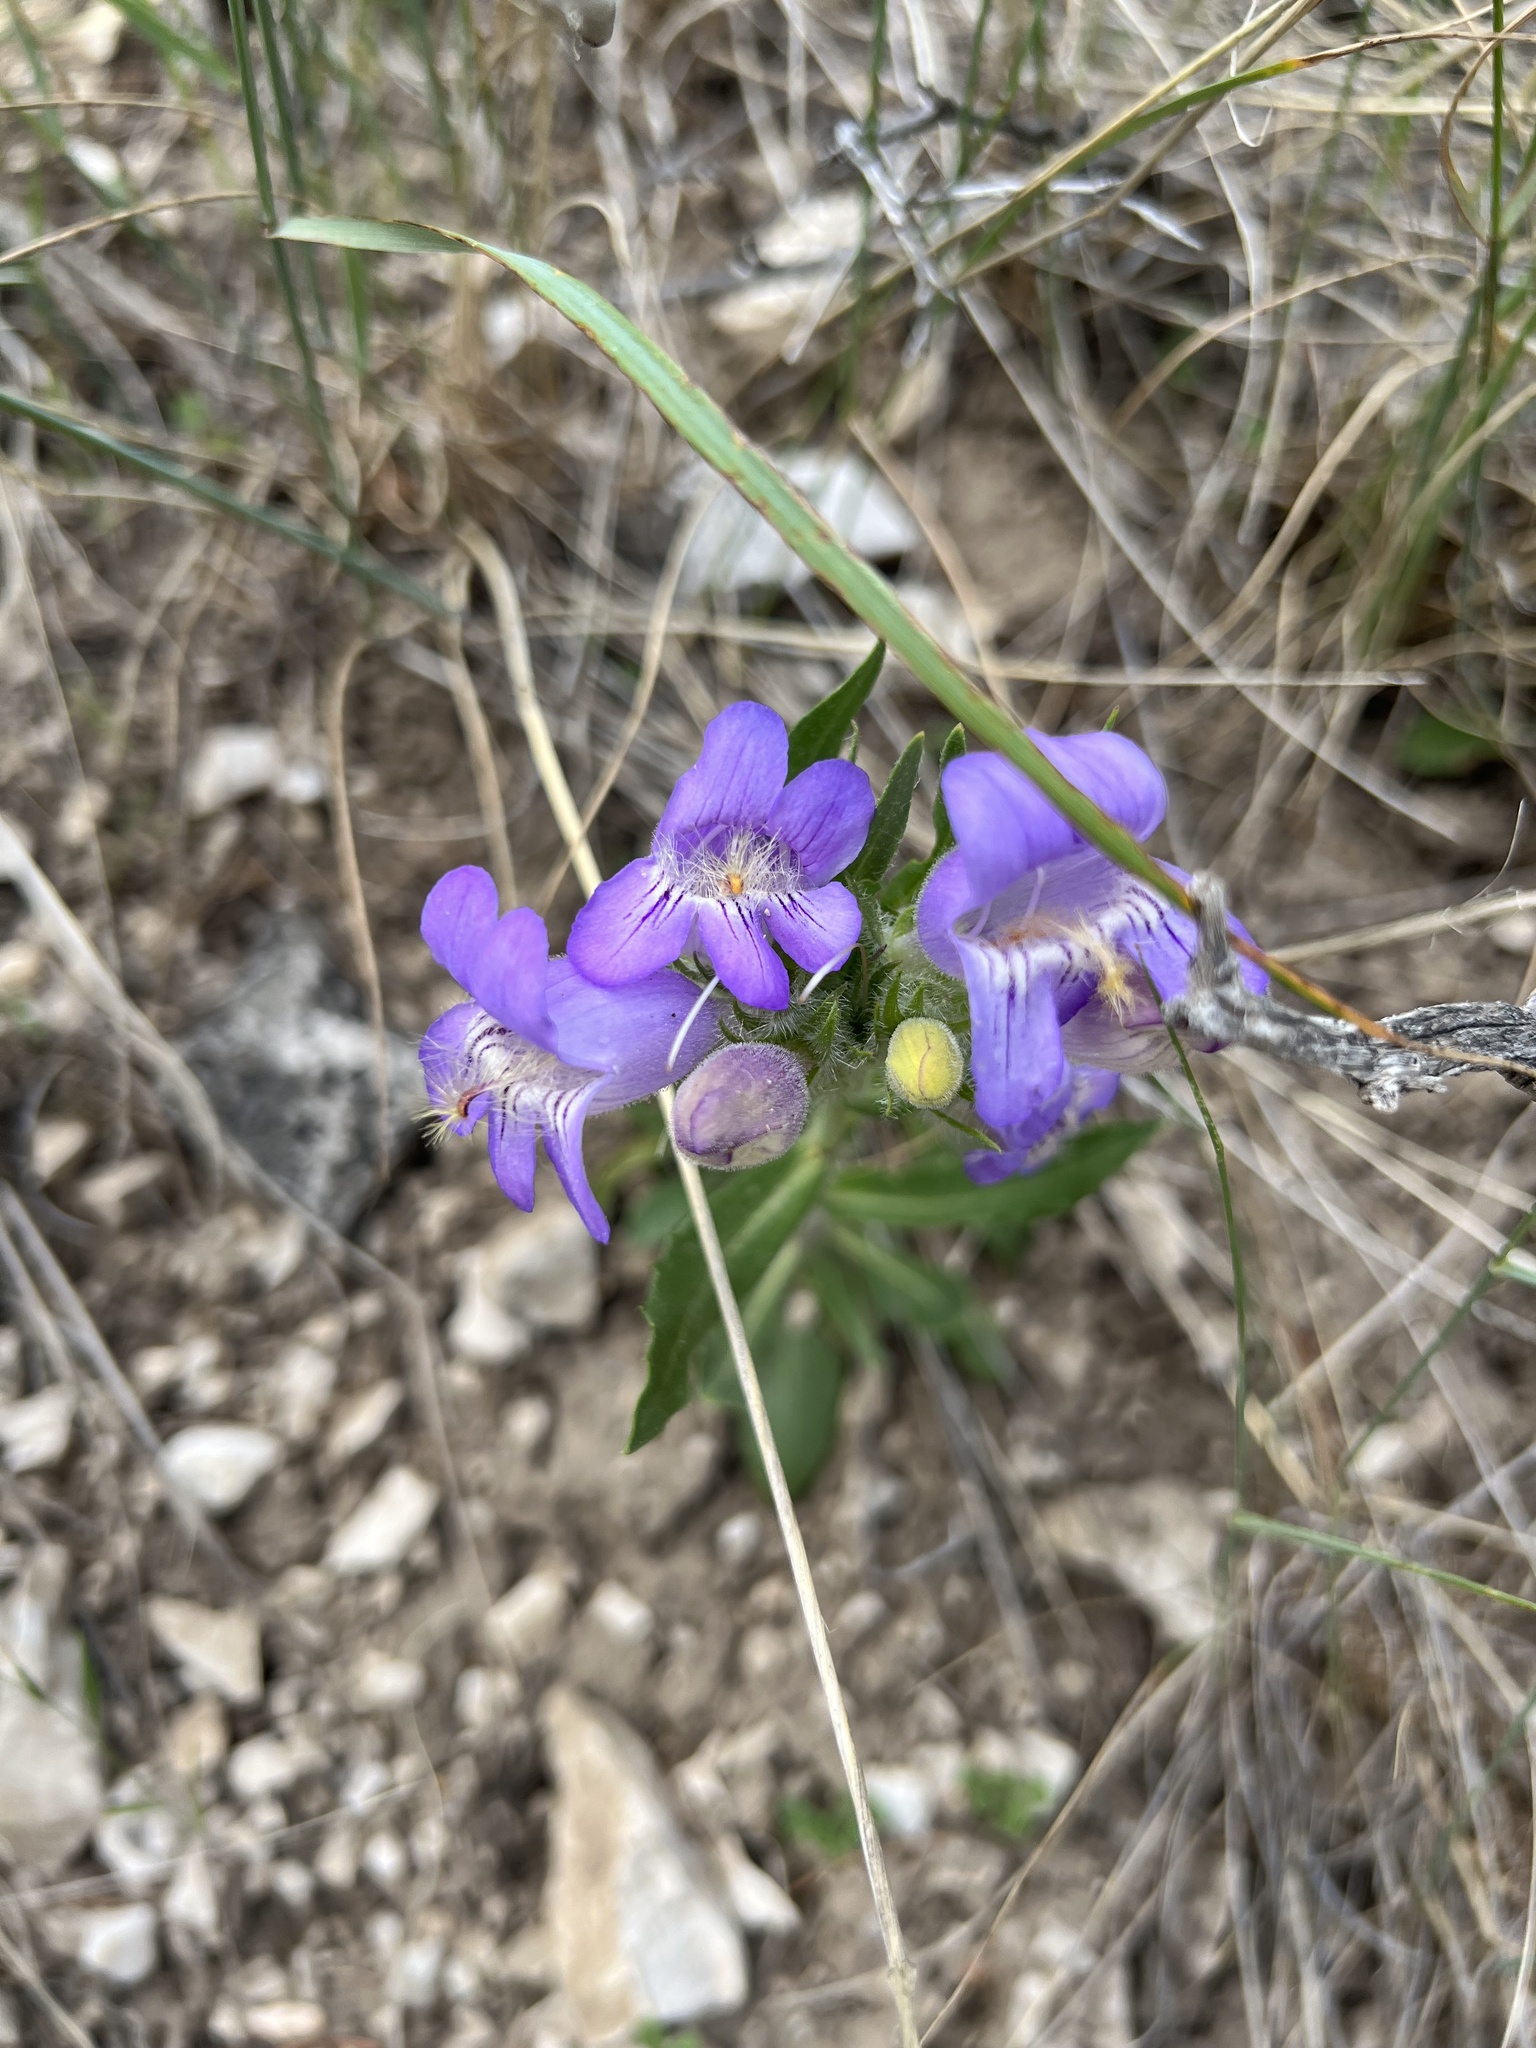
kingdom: Plantae
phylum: Tracheophyta
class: Magnoliopsida
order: Lamiales
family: Plantaginaceae
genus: Penstemon
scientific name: Penstemon eriantherus
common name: Crested beardtongue
